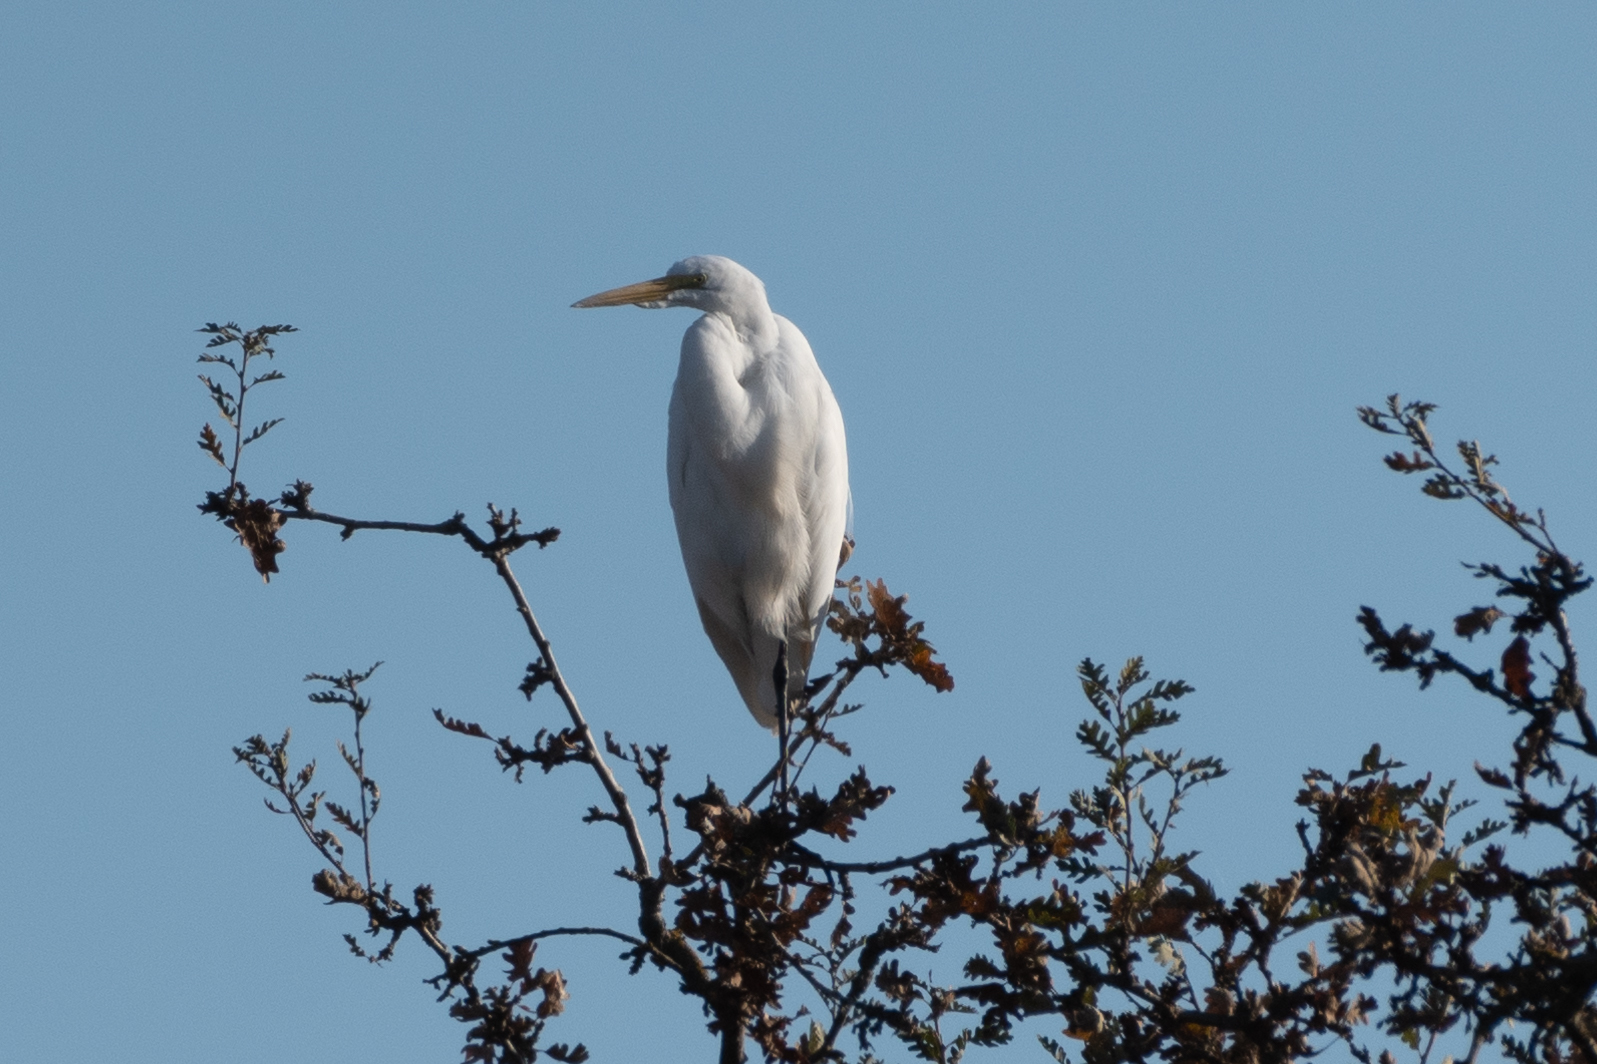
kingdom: Animalia
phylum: Chordata
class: Aves
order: Pelecaniformes
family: Ardeidae
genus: Ardea
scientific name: Ardea alba
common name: Great egret
